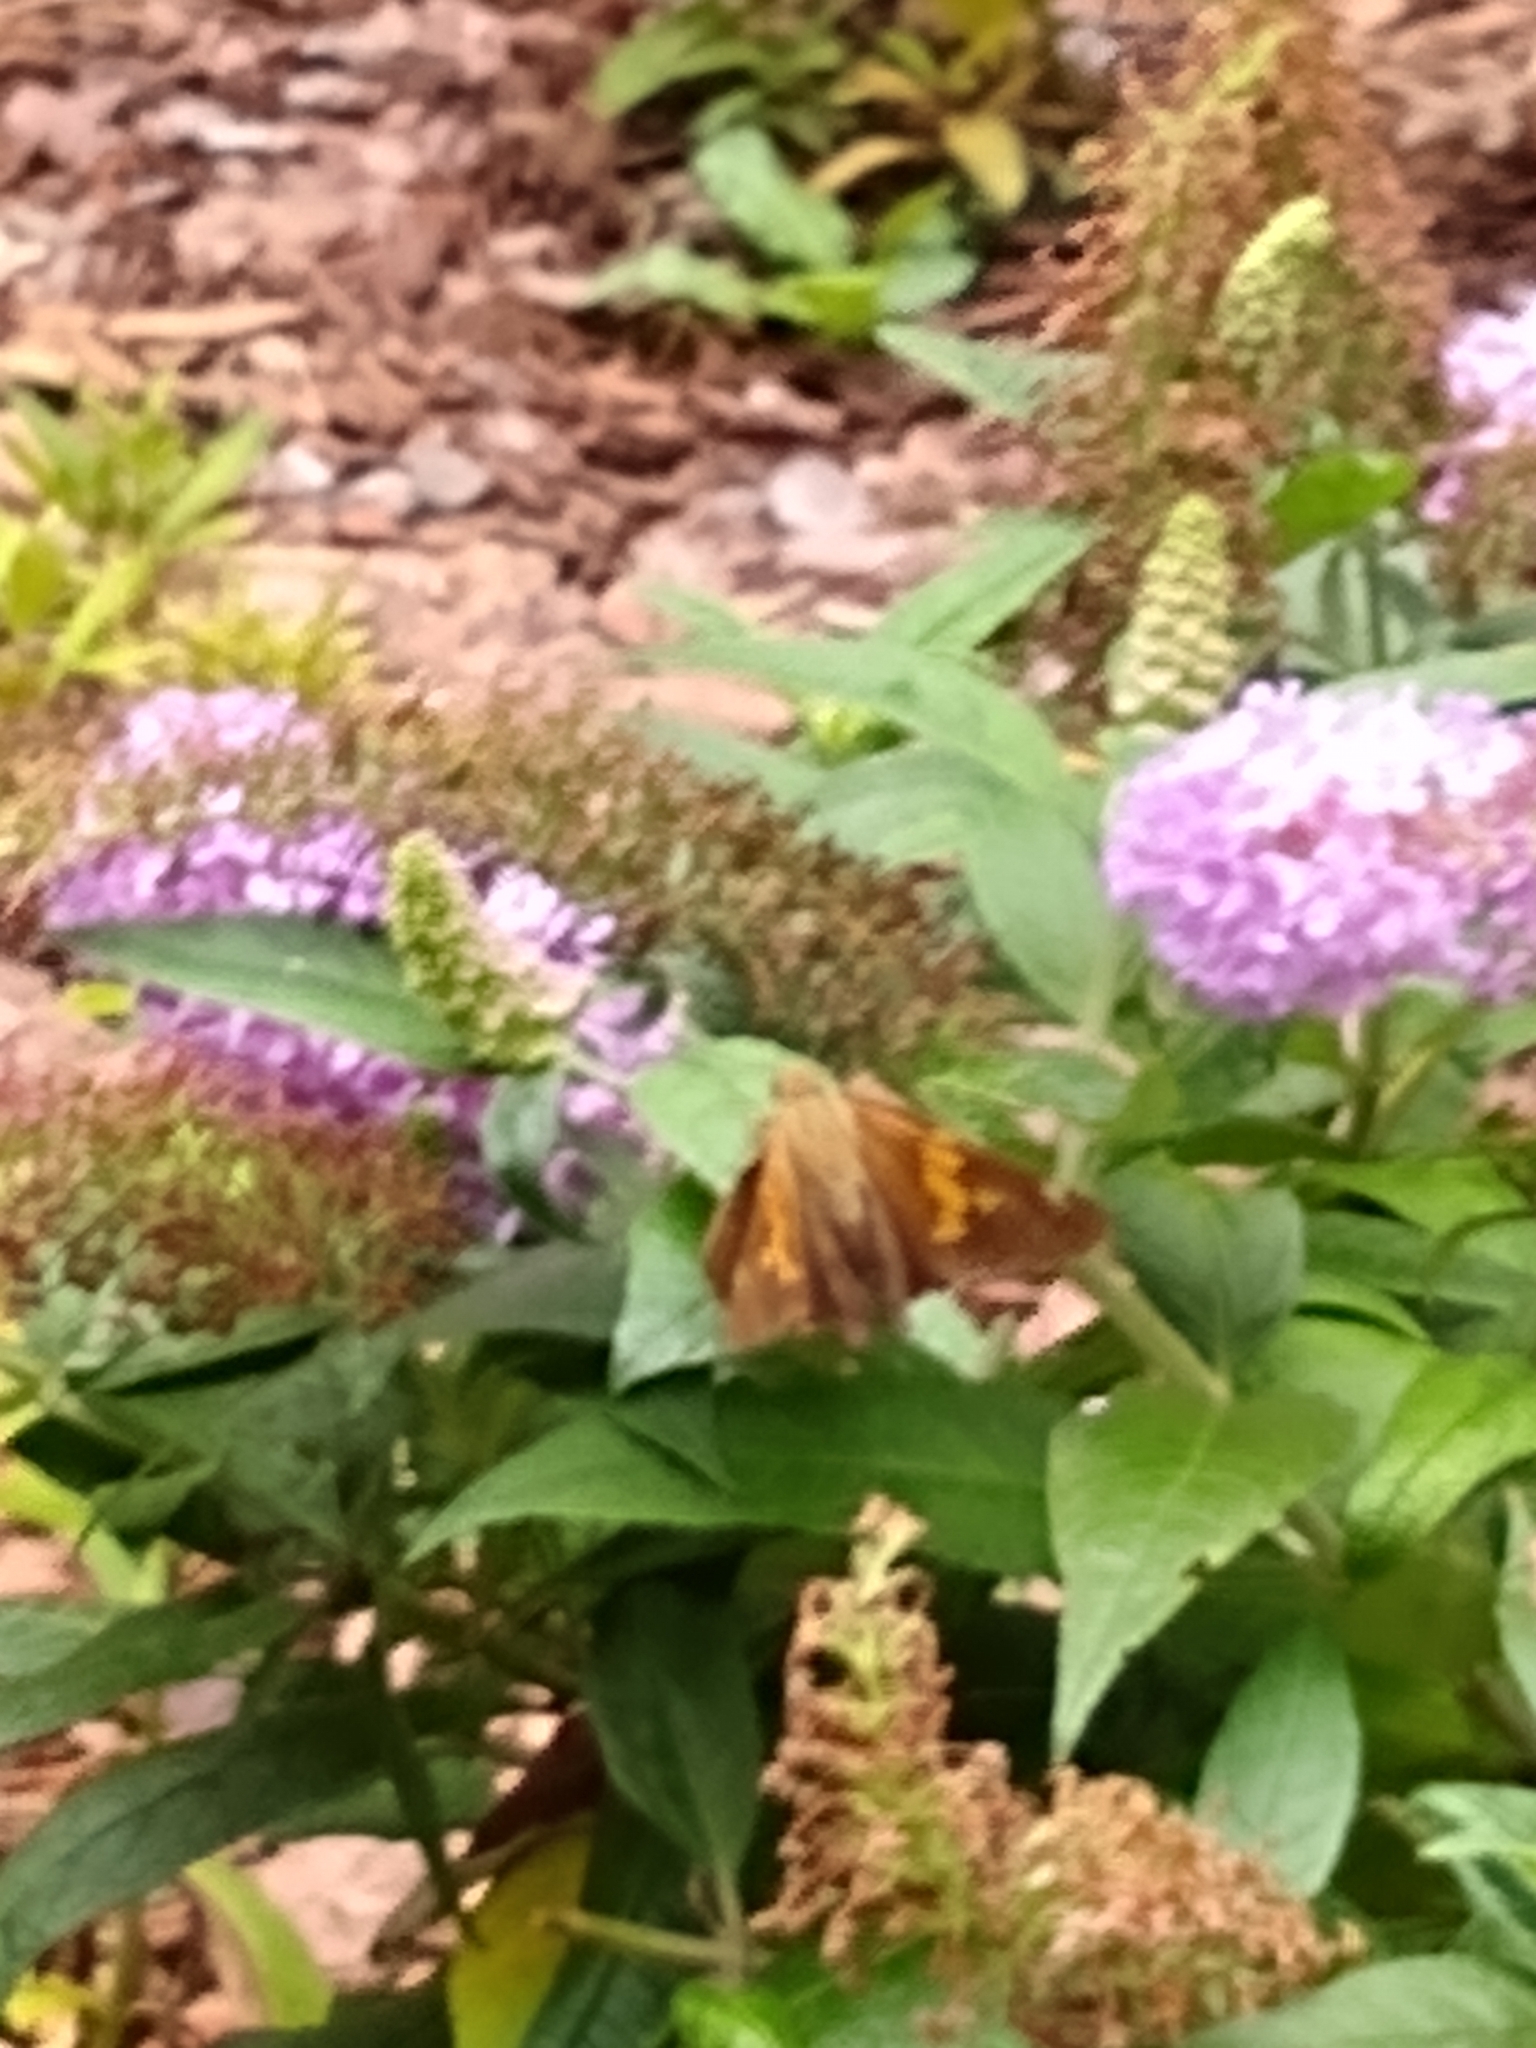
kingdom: Animalia
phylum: Arthropoda
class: Insecta
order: Lepidoptera
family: Hesperiidae
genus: Epargyreus
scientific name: Epargyreus clarus
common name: Silver-spotted skipper
